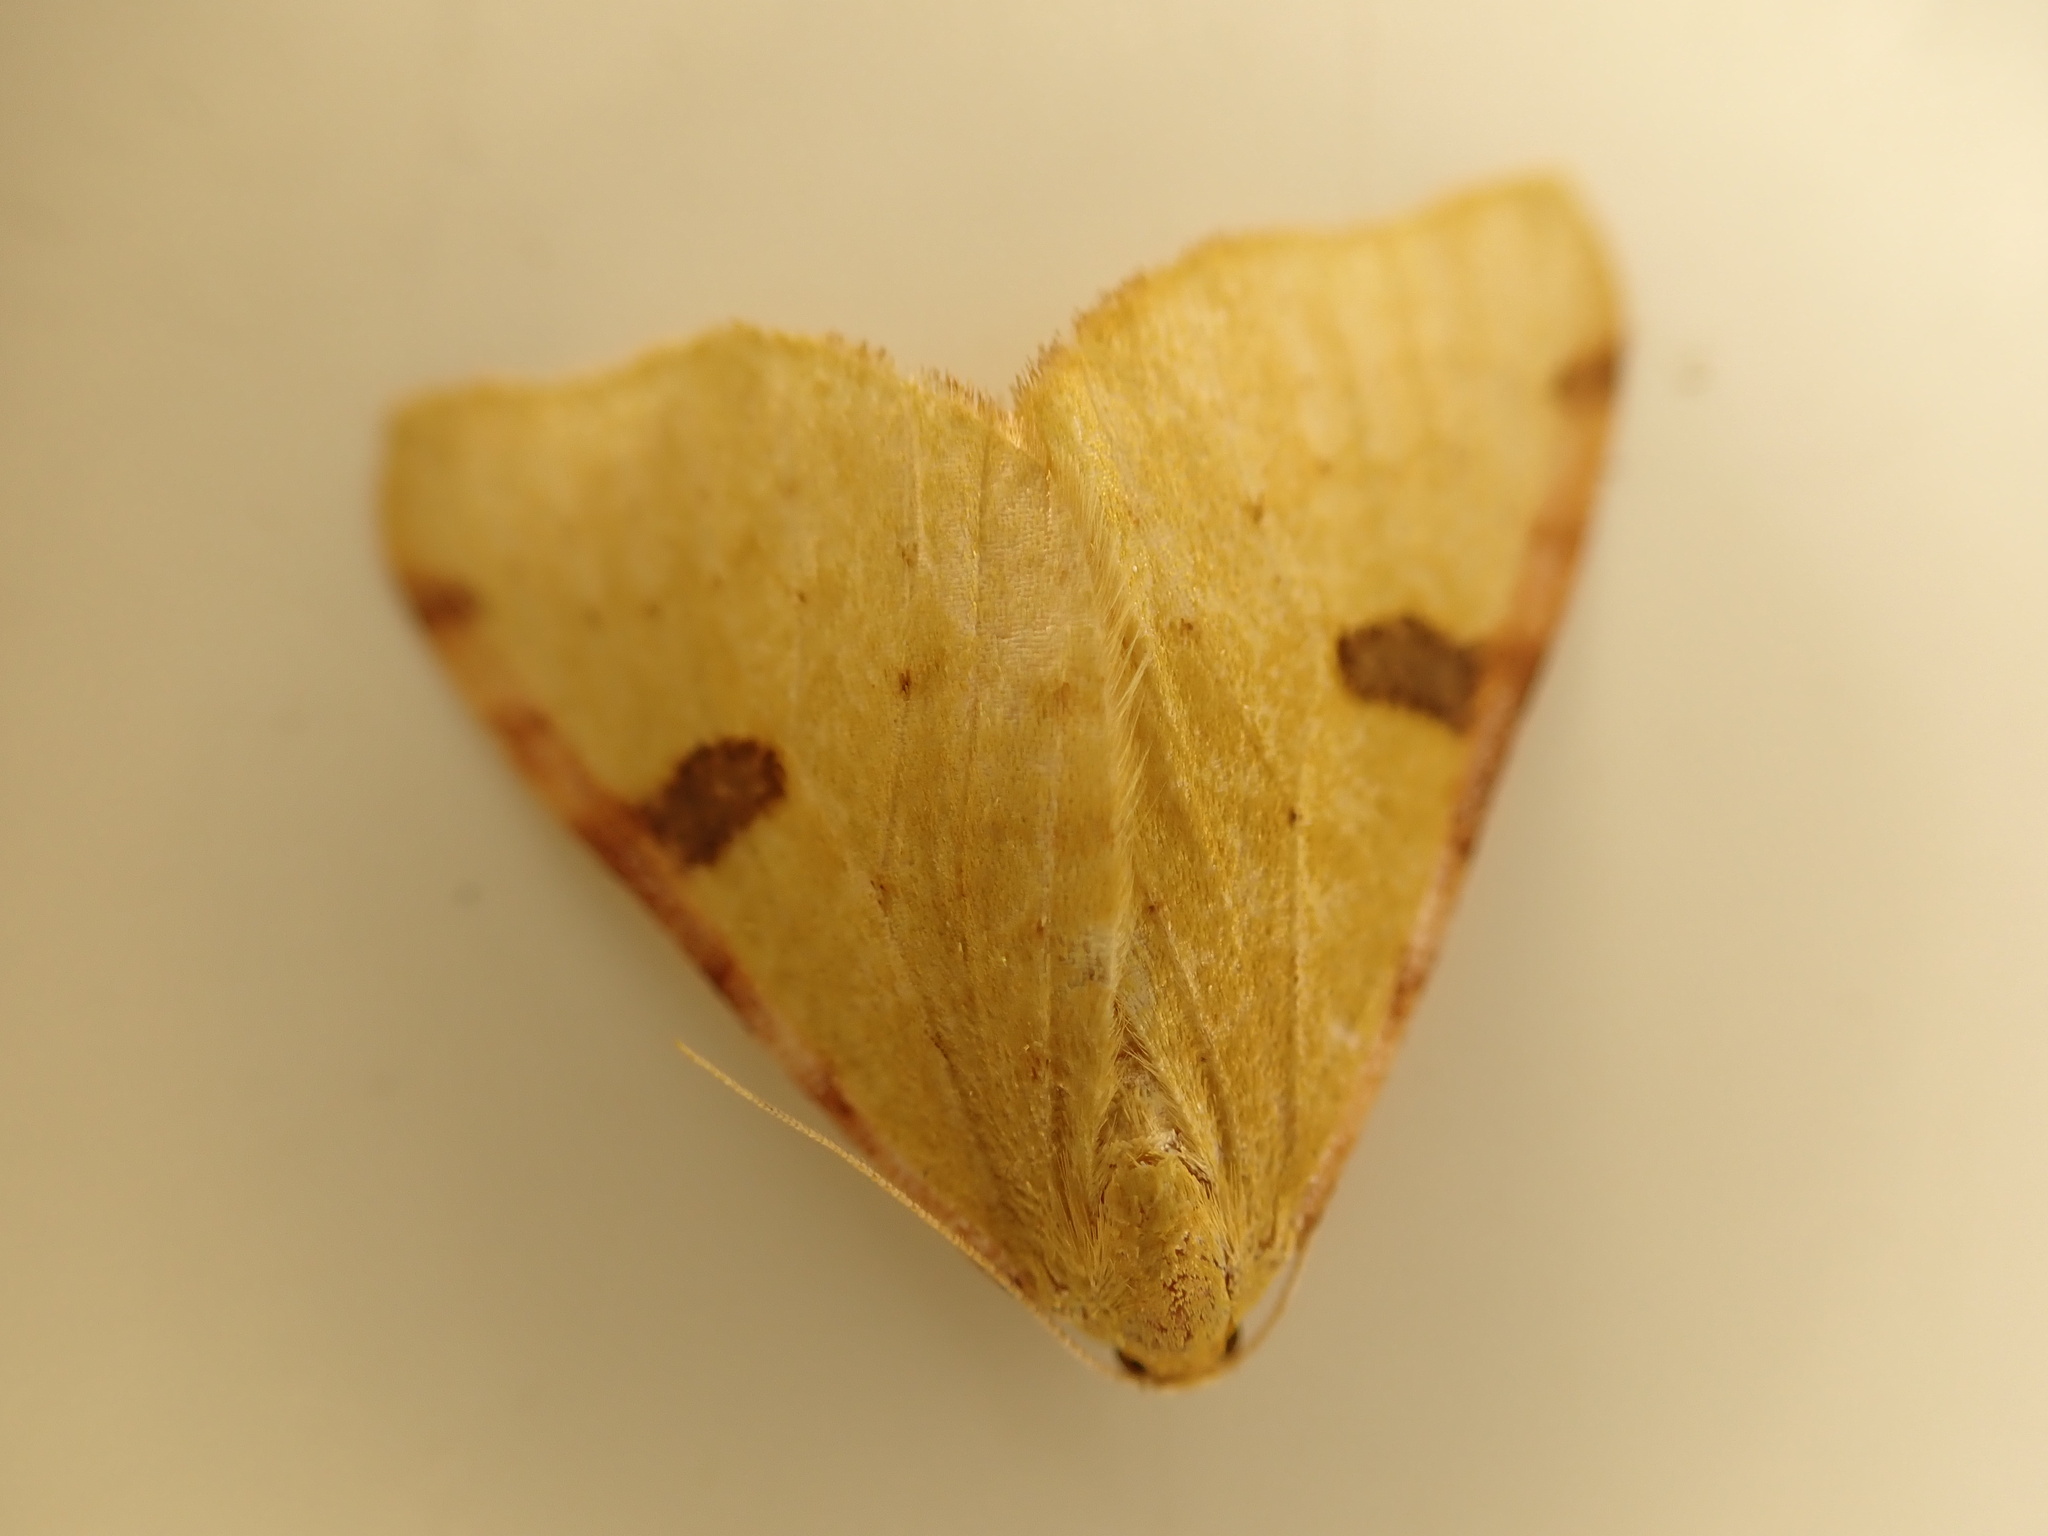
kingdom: Animalia
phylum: Arthropoda
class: Insecta
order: Lepidoptera
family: Geometridae
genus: Epiphryne
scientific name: Epiphryne xanthaspis
